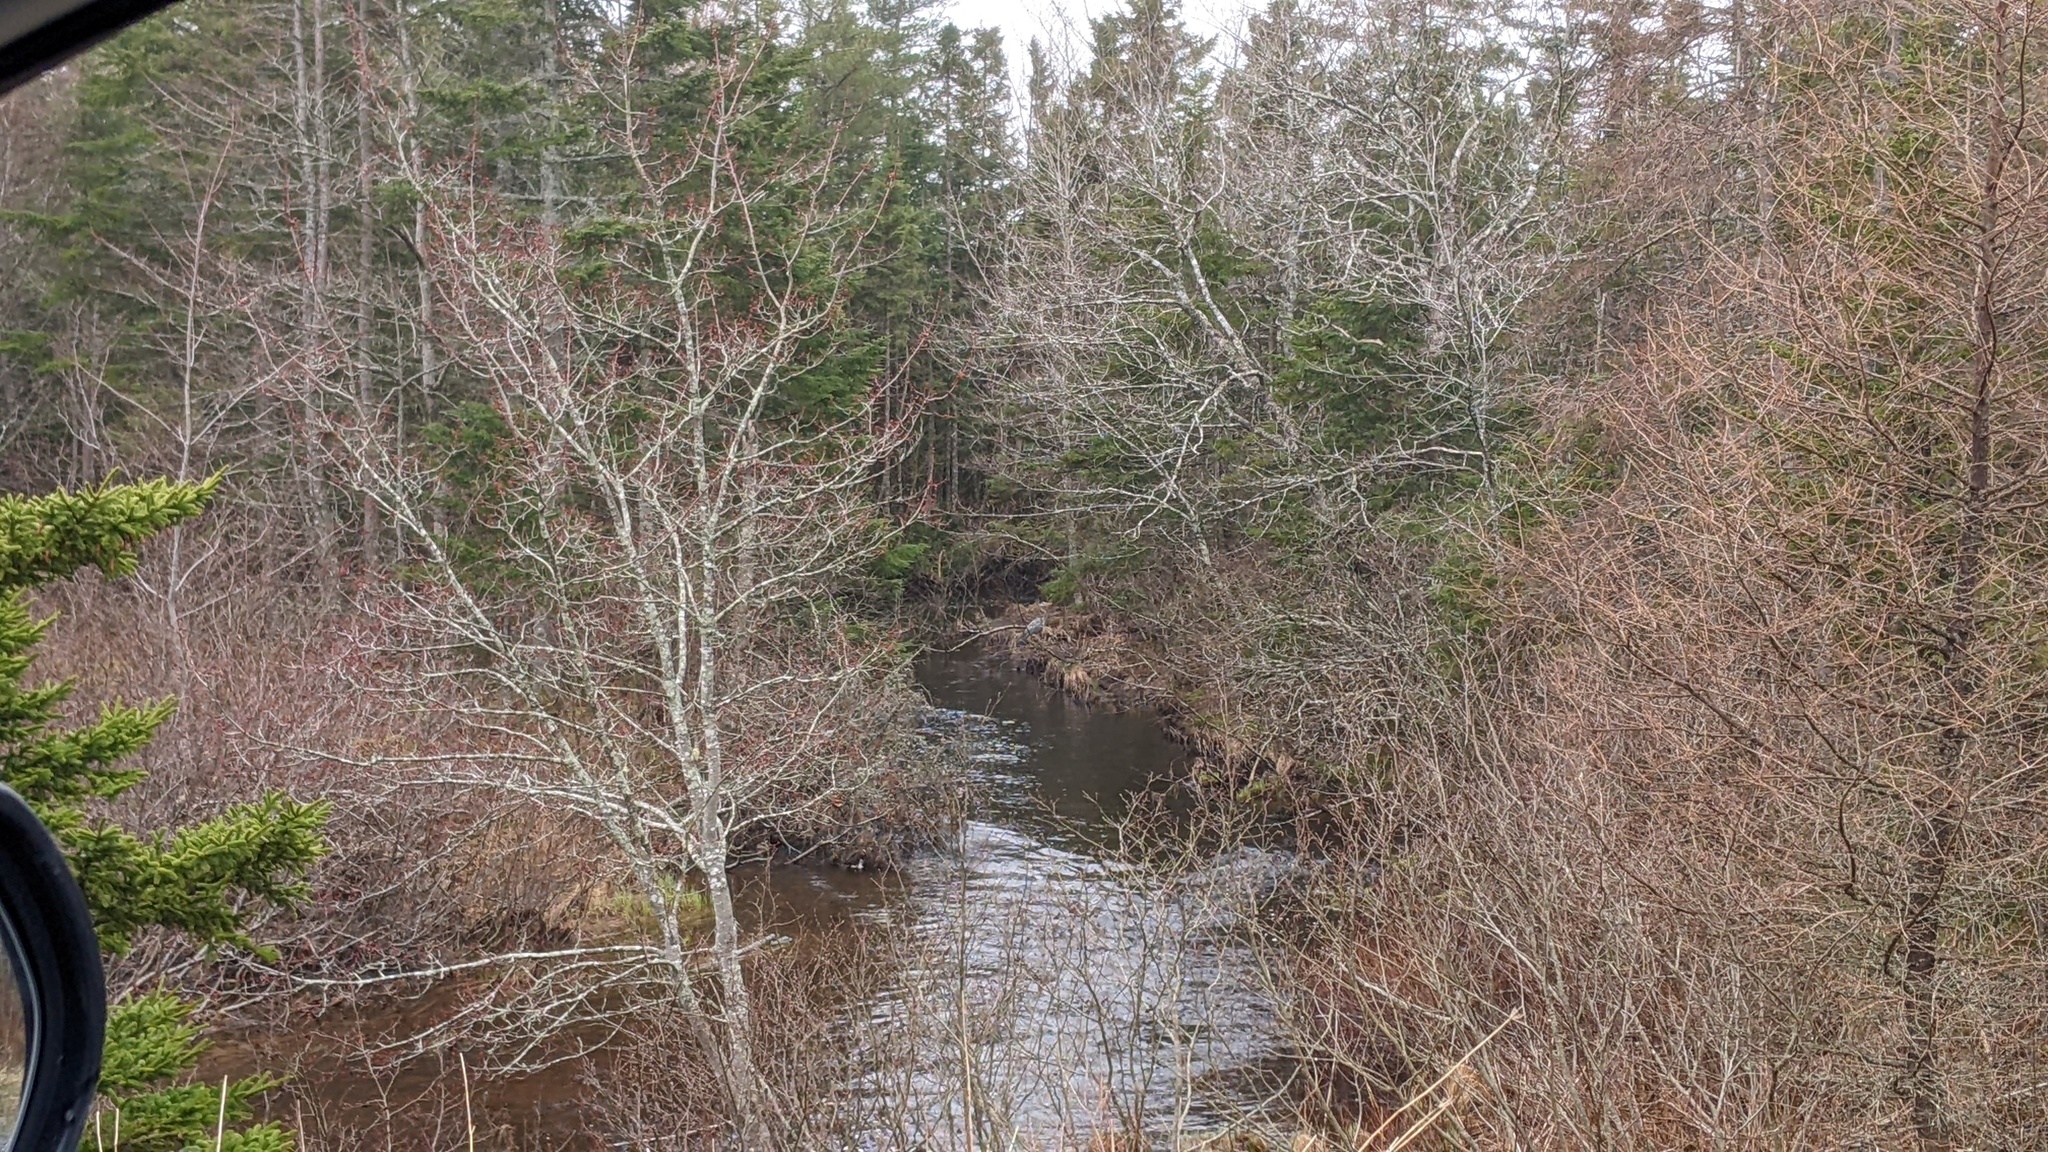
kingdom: Animalia
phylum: Chordata
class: Aves
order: Pelecaniformes
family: Ardeidae
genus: Ardea
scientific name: Ardea herodias
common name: Great blue heron
